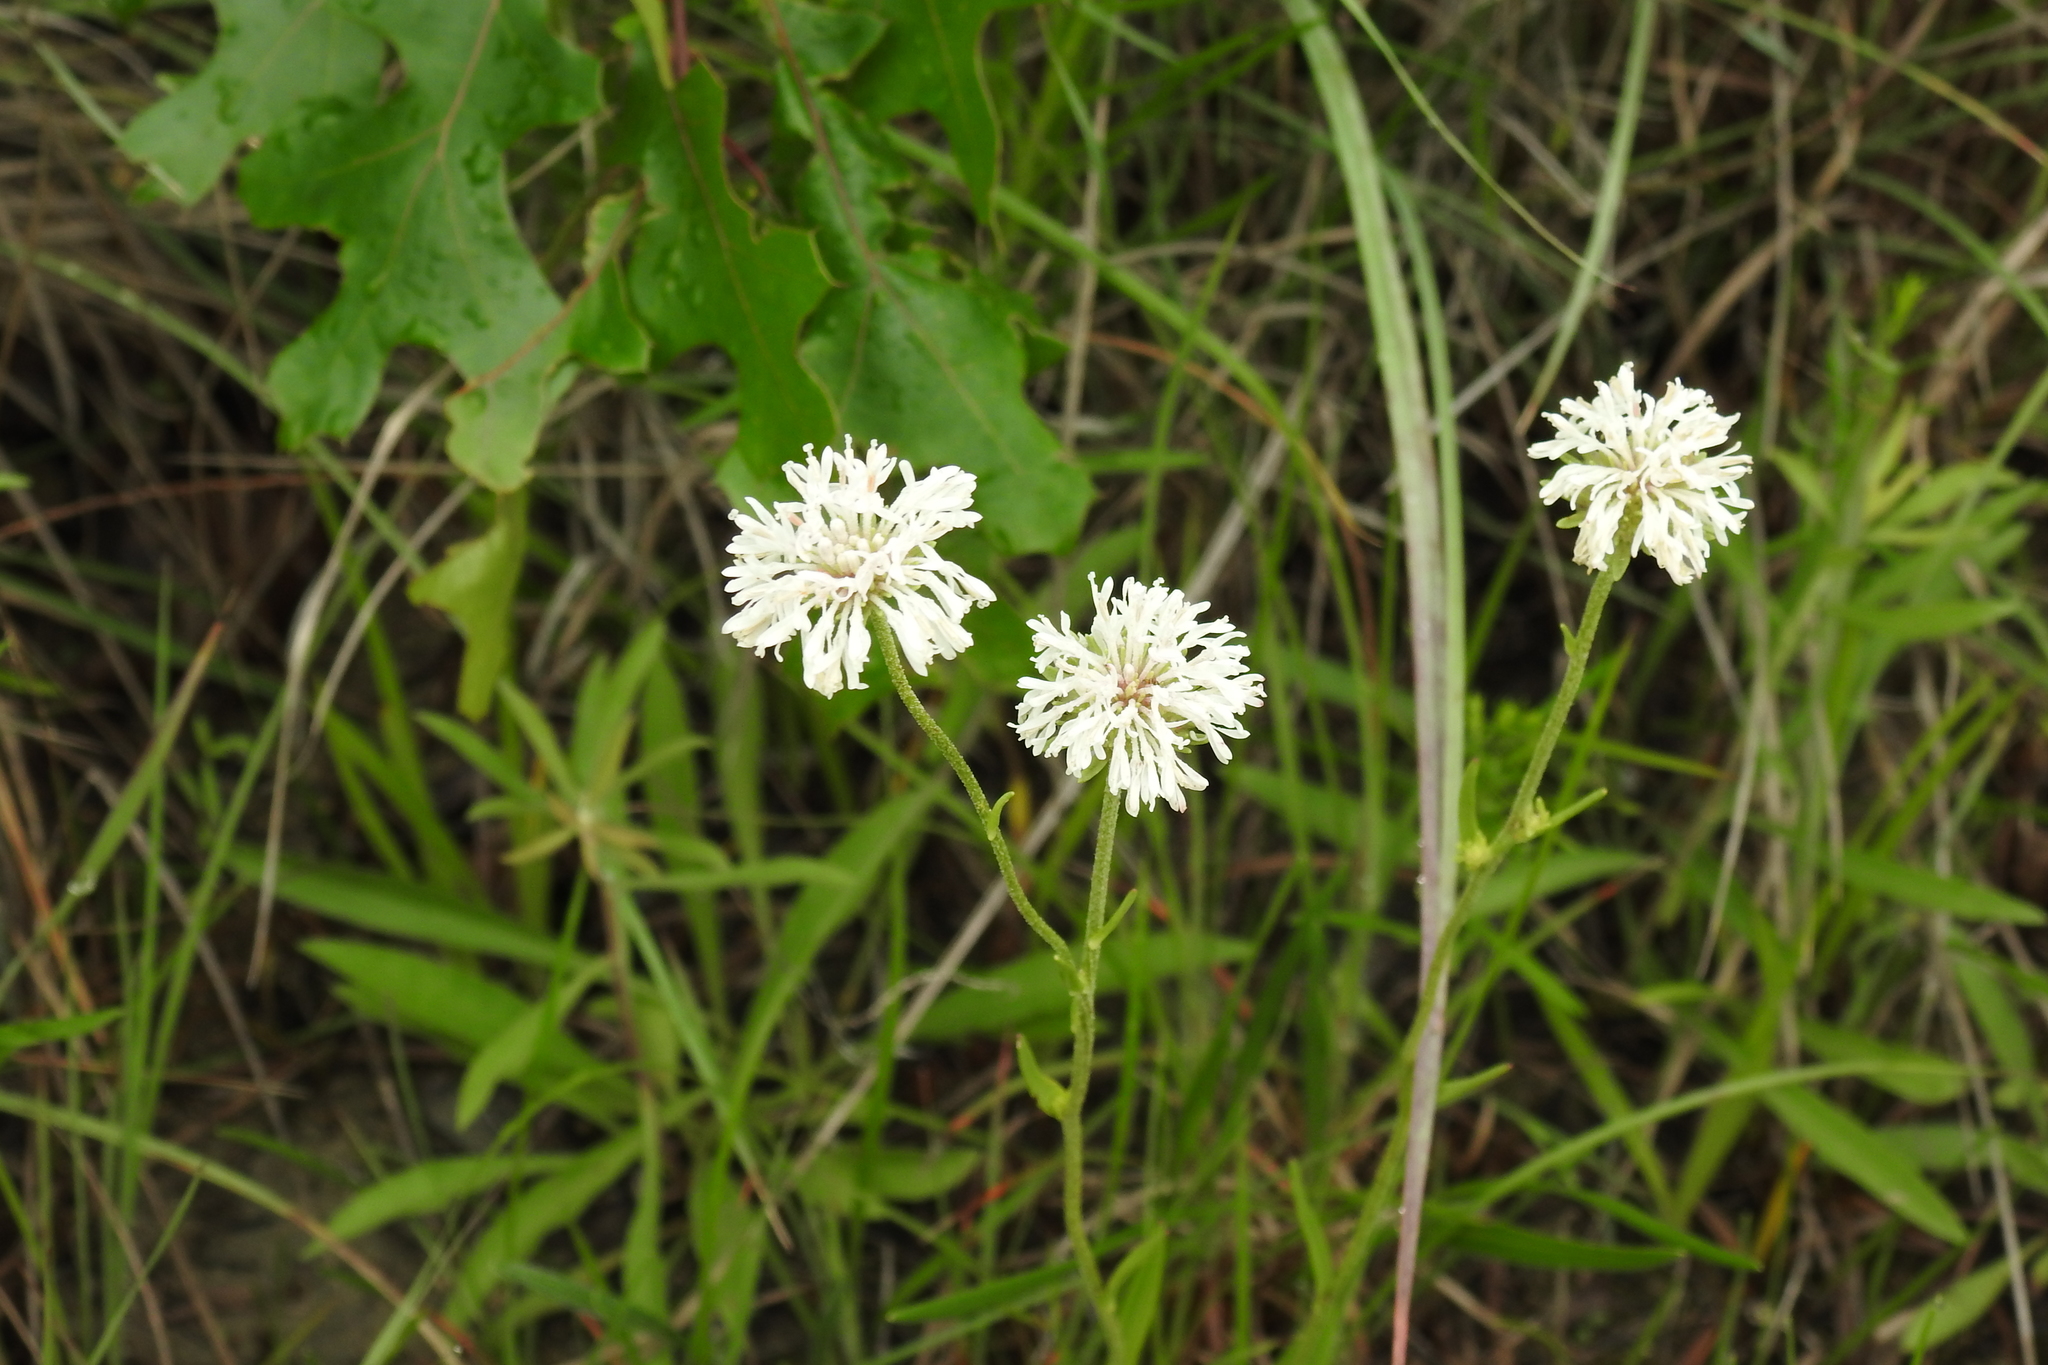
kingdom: Plantae
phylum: Tracheophyta
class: Magnoliopsida
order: Asterales
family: Asteraceae
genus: Marshallia
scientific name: Marshallia caespitosa
